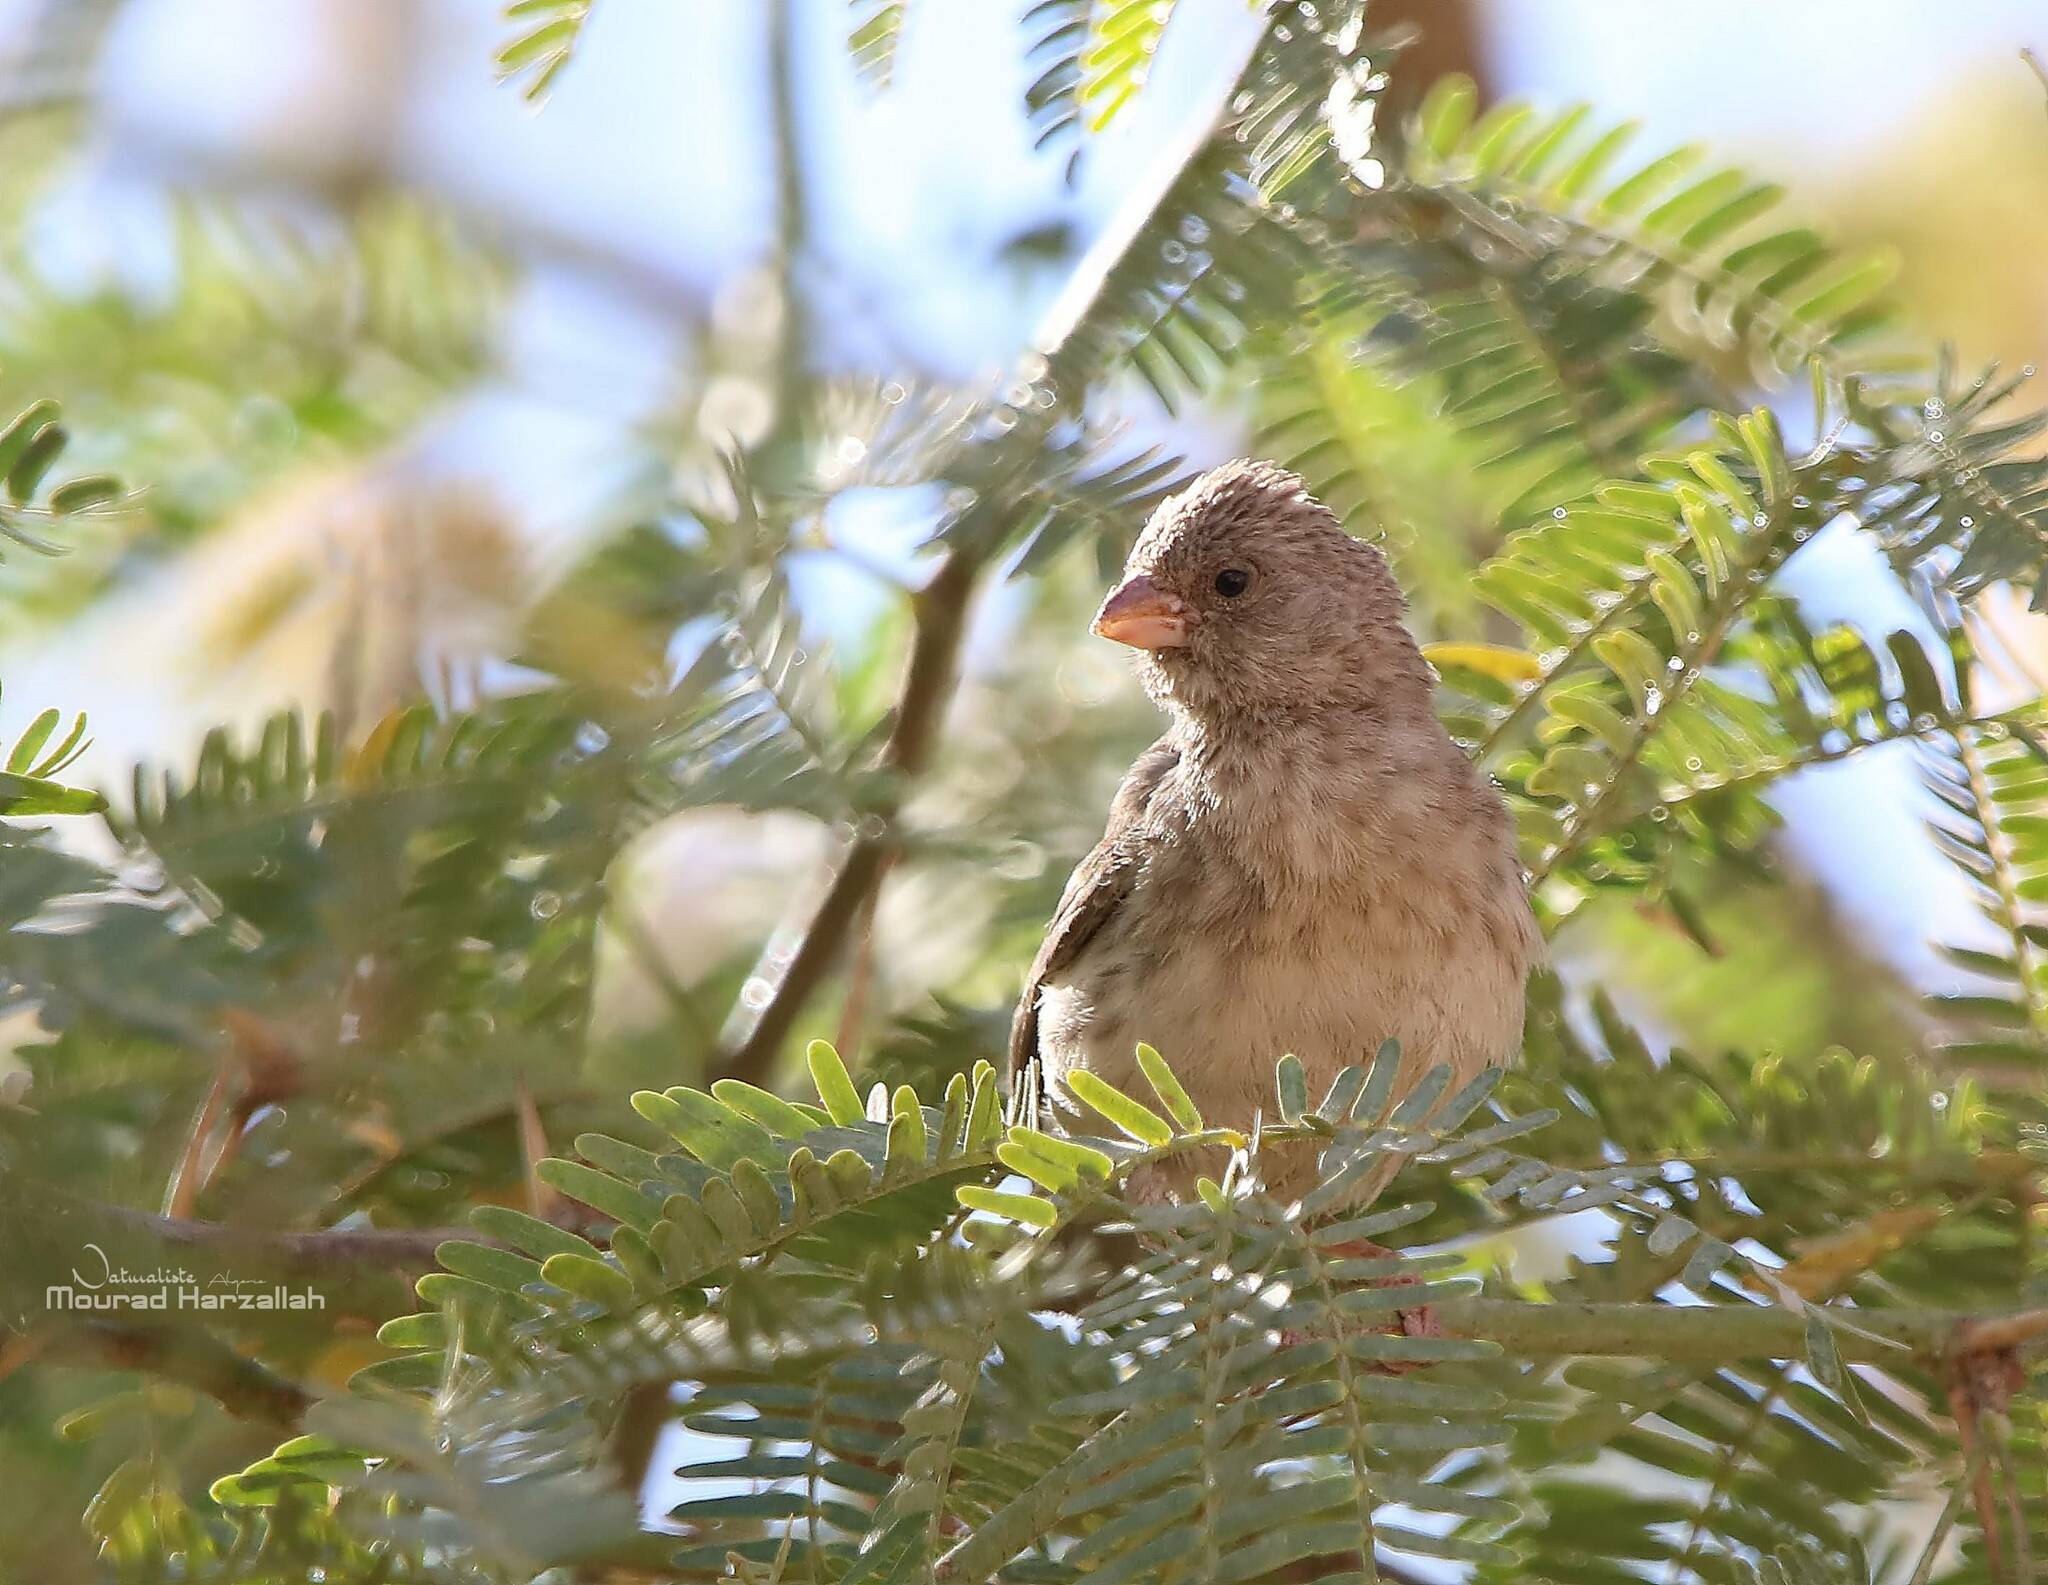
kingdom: Animalia
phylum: Chordata
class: Aves
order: Passeriformes
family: Fringillidae
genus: Crithagra
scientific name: Crithagra leucopygia
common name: White-rumped seedeater
